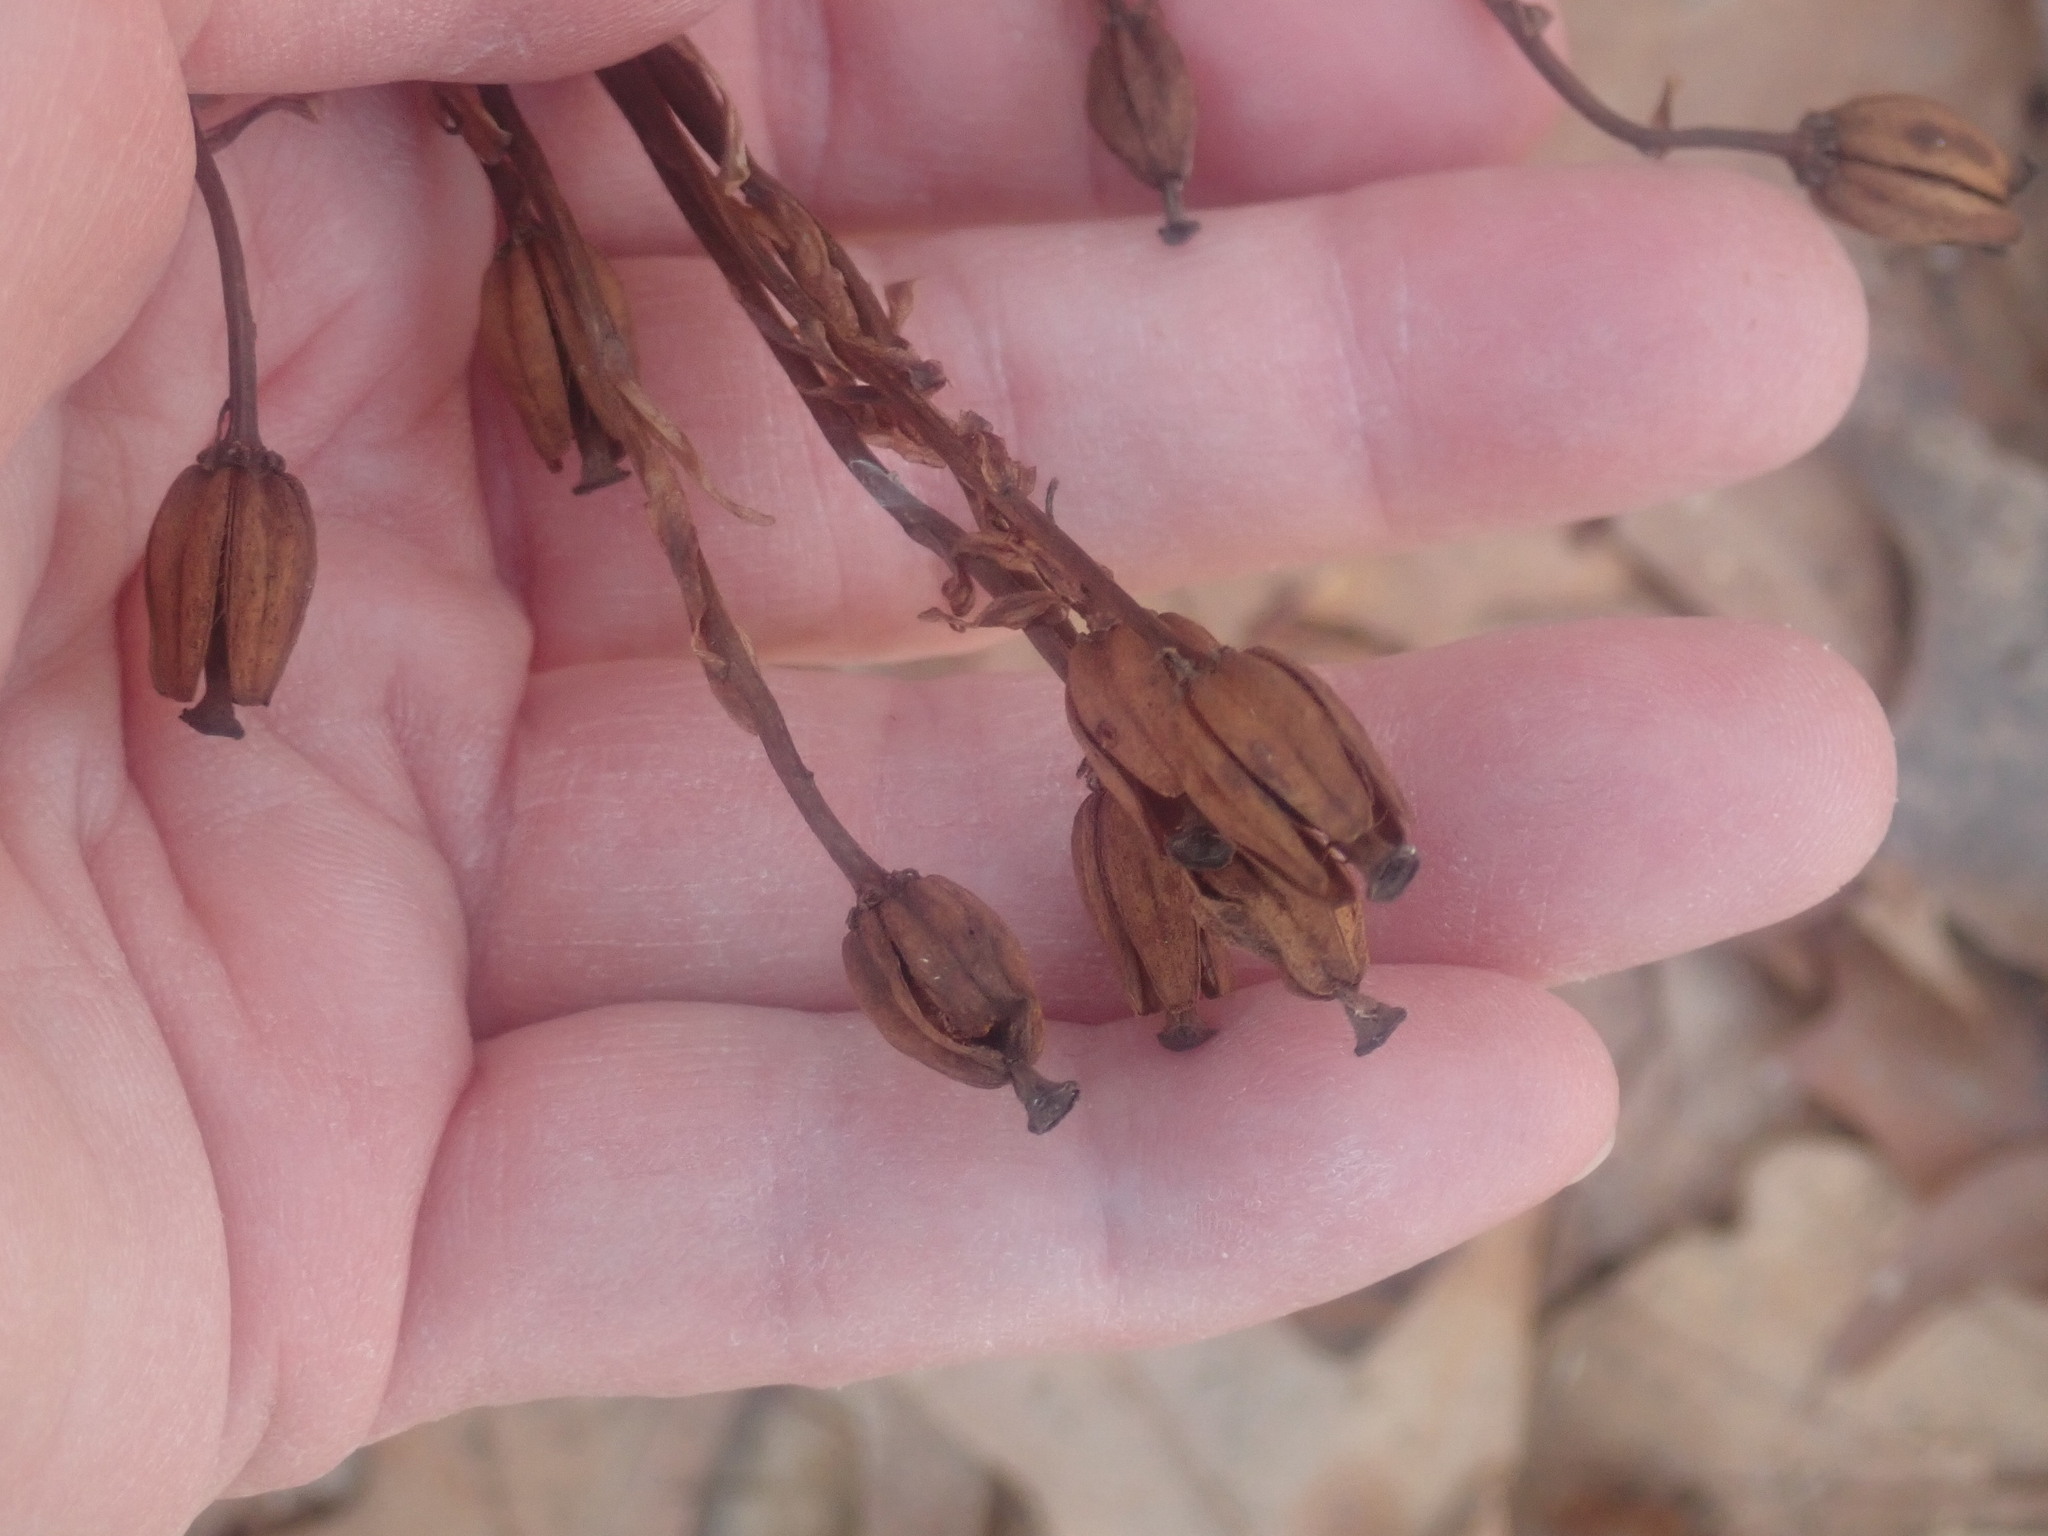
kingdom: Plantae
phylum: Tracheophyta
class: Magnoliopsida
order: Ericales
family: Ericaceae
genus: Monotropa
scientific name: Monotropa uniflora
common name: Convulsion root
